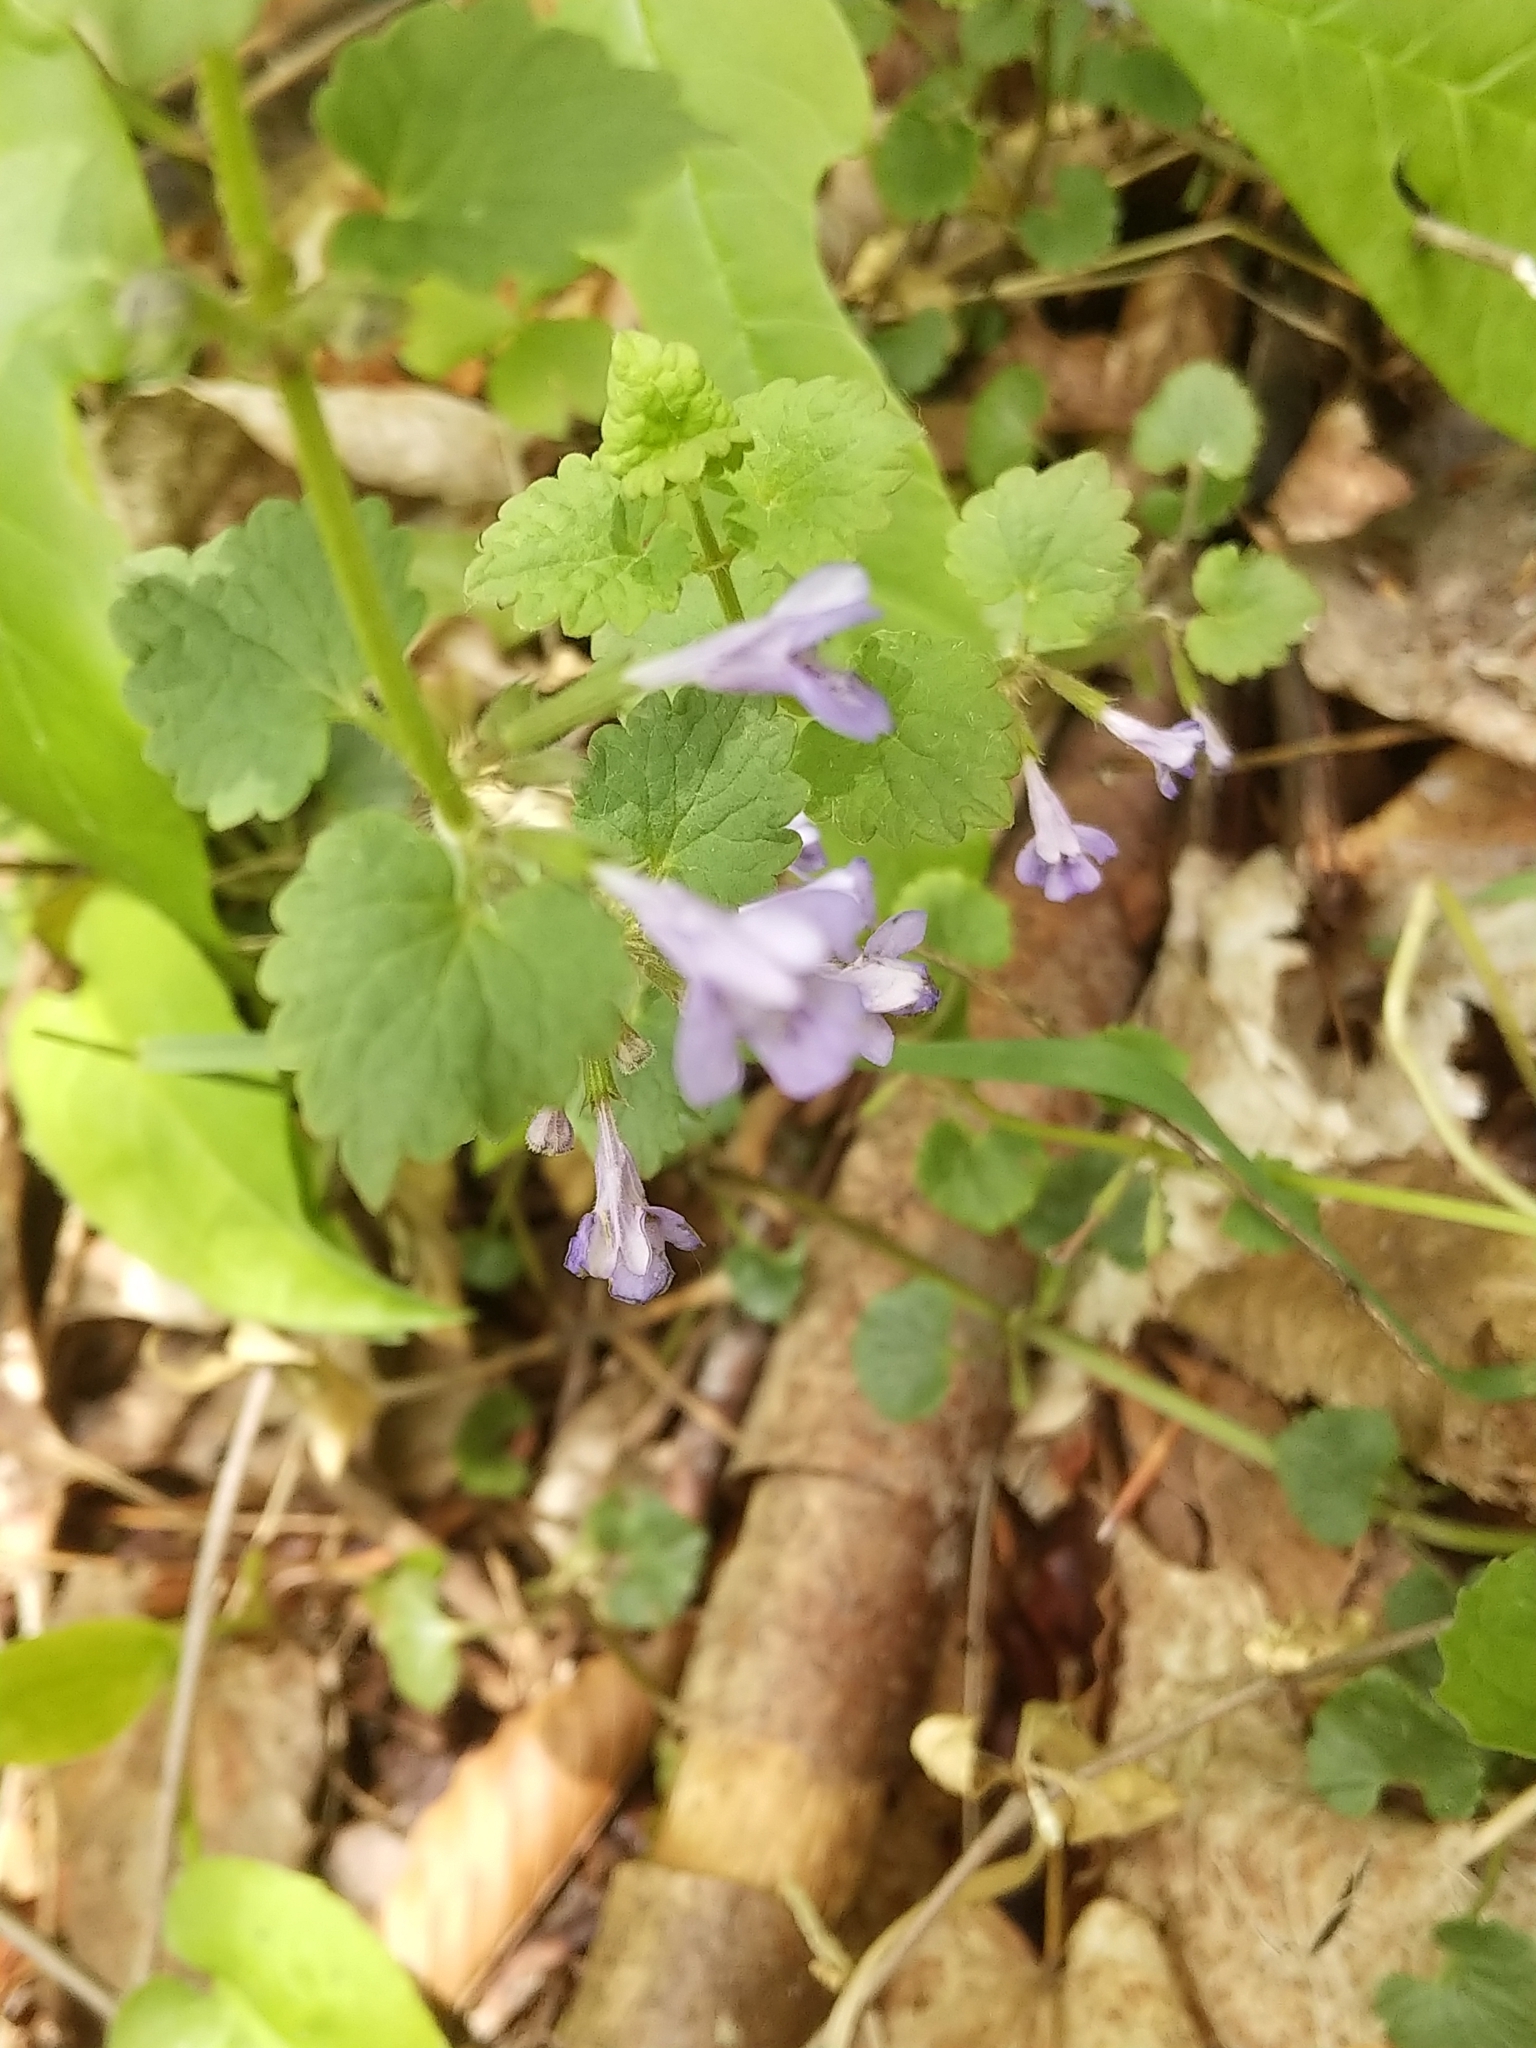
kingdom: Plantae
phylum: Tracheophyta
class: Magnoliopsida
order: Lamiales
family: Lamiaceae
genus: Glechoma
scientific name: Glechoma hederacea
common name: Ground ivy
